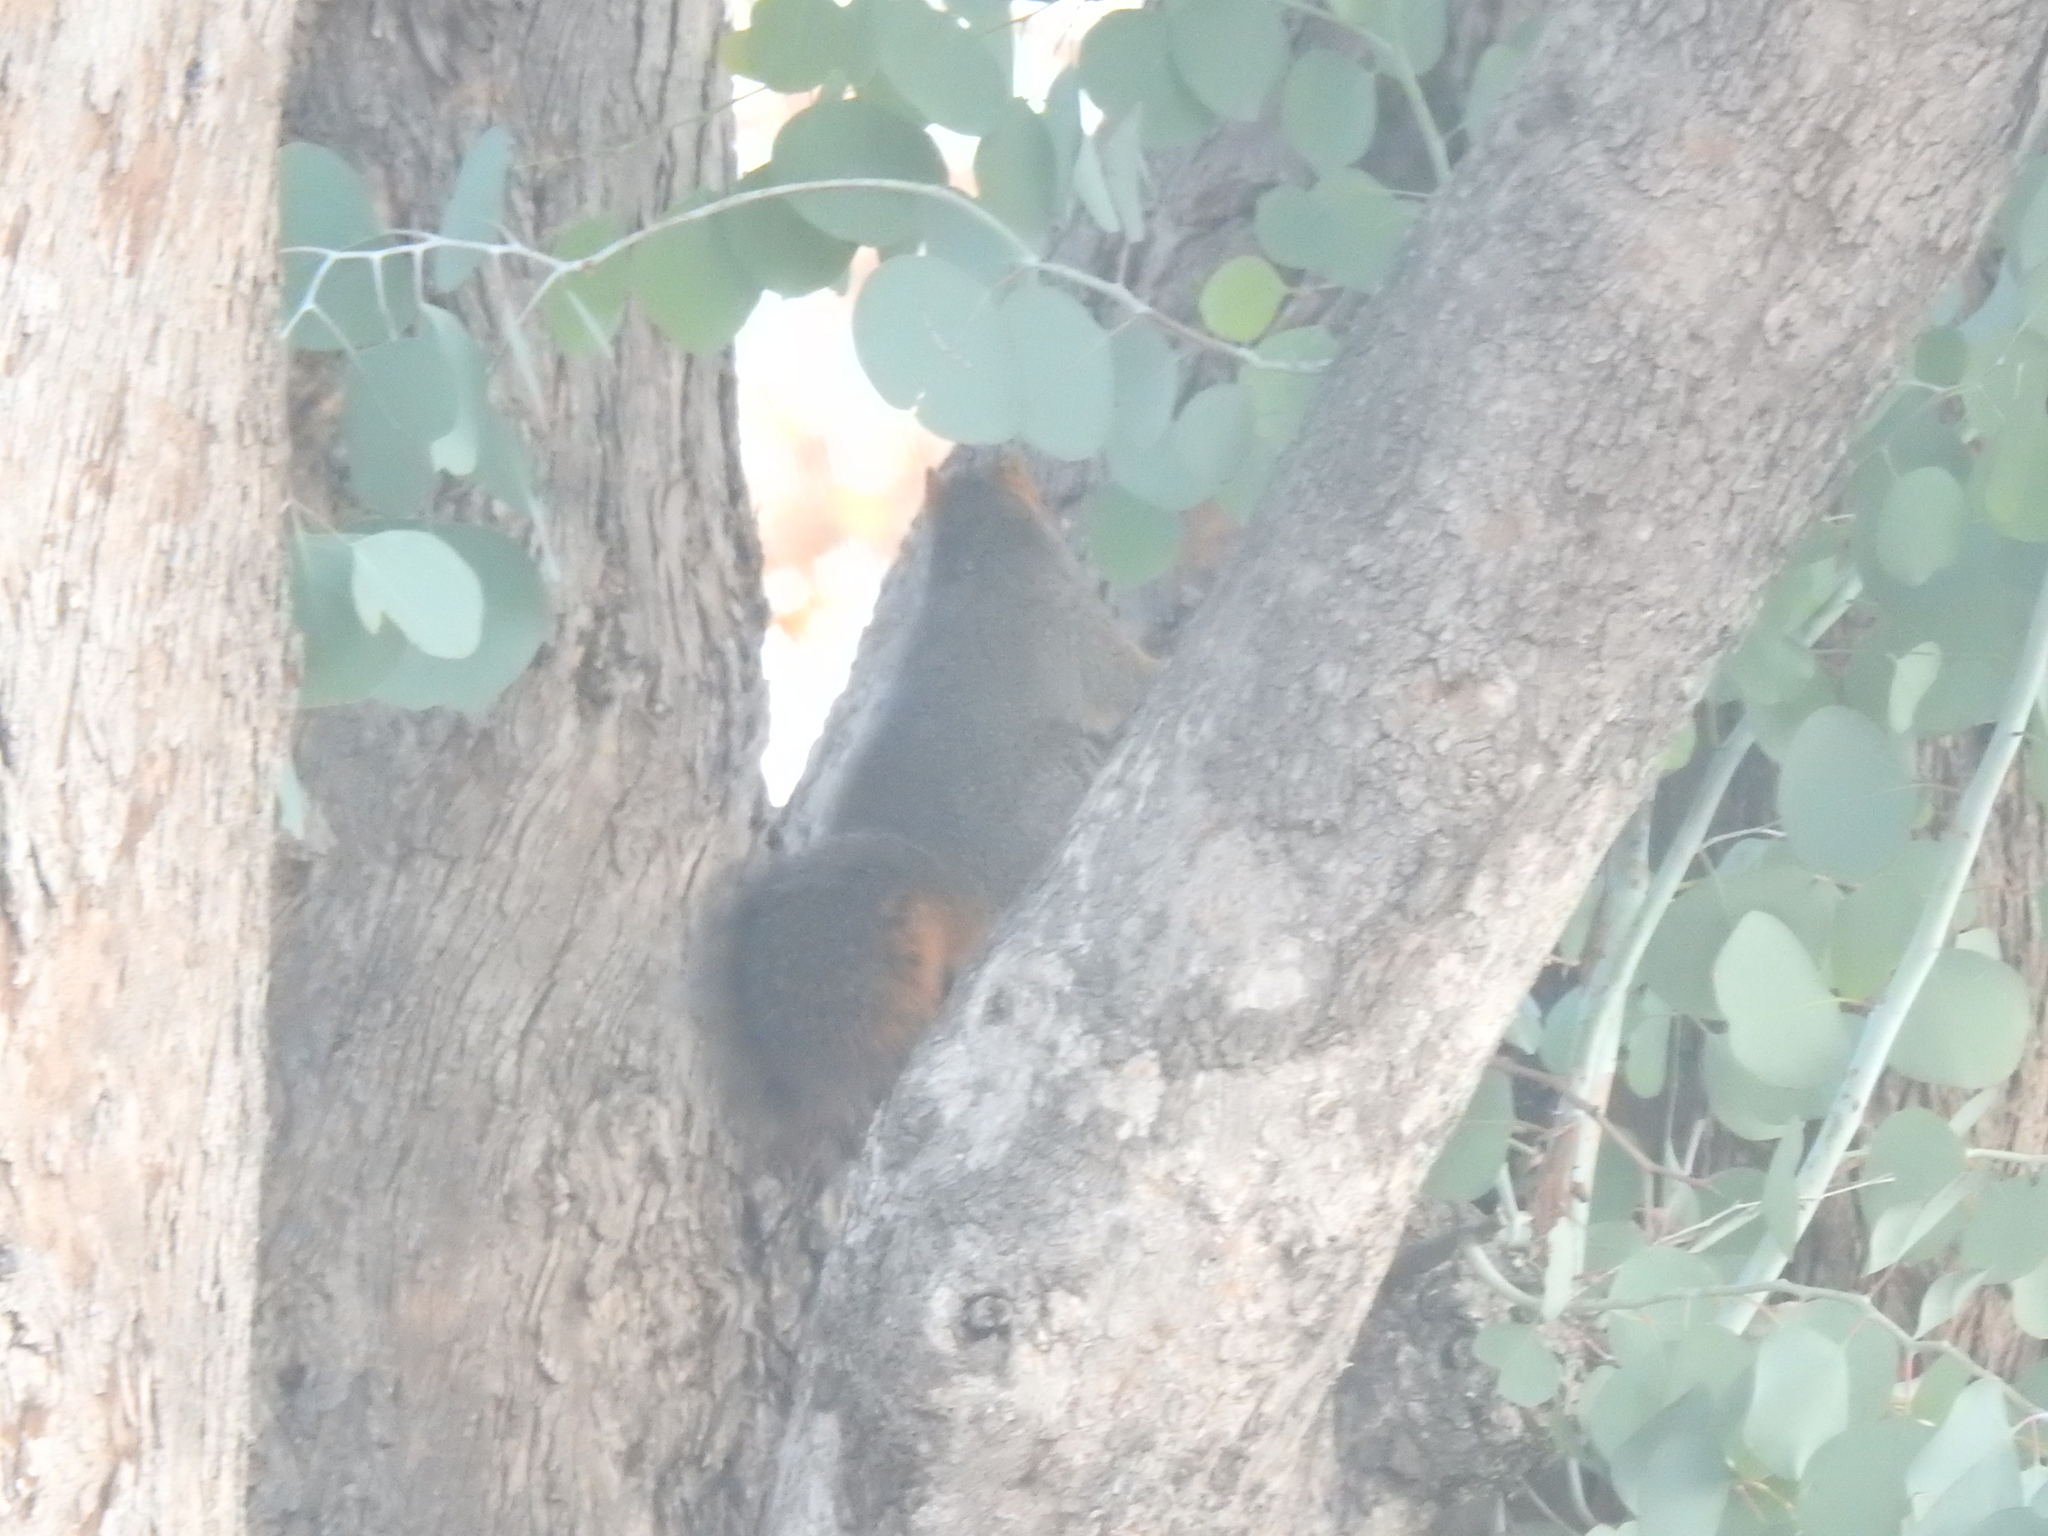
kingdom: Animalia
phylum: Chordata
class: Mammalia
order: Rodentia
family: Sciuridae
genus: Sciurus
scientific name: Sciurus niger
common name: Fox squirrel
